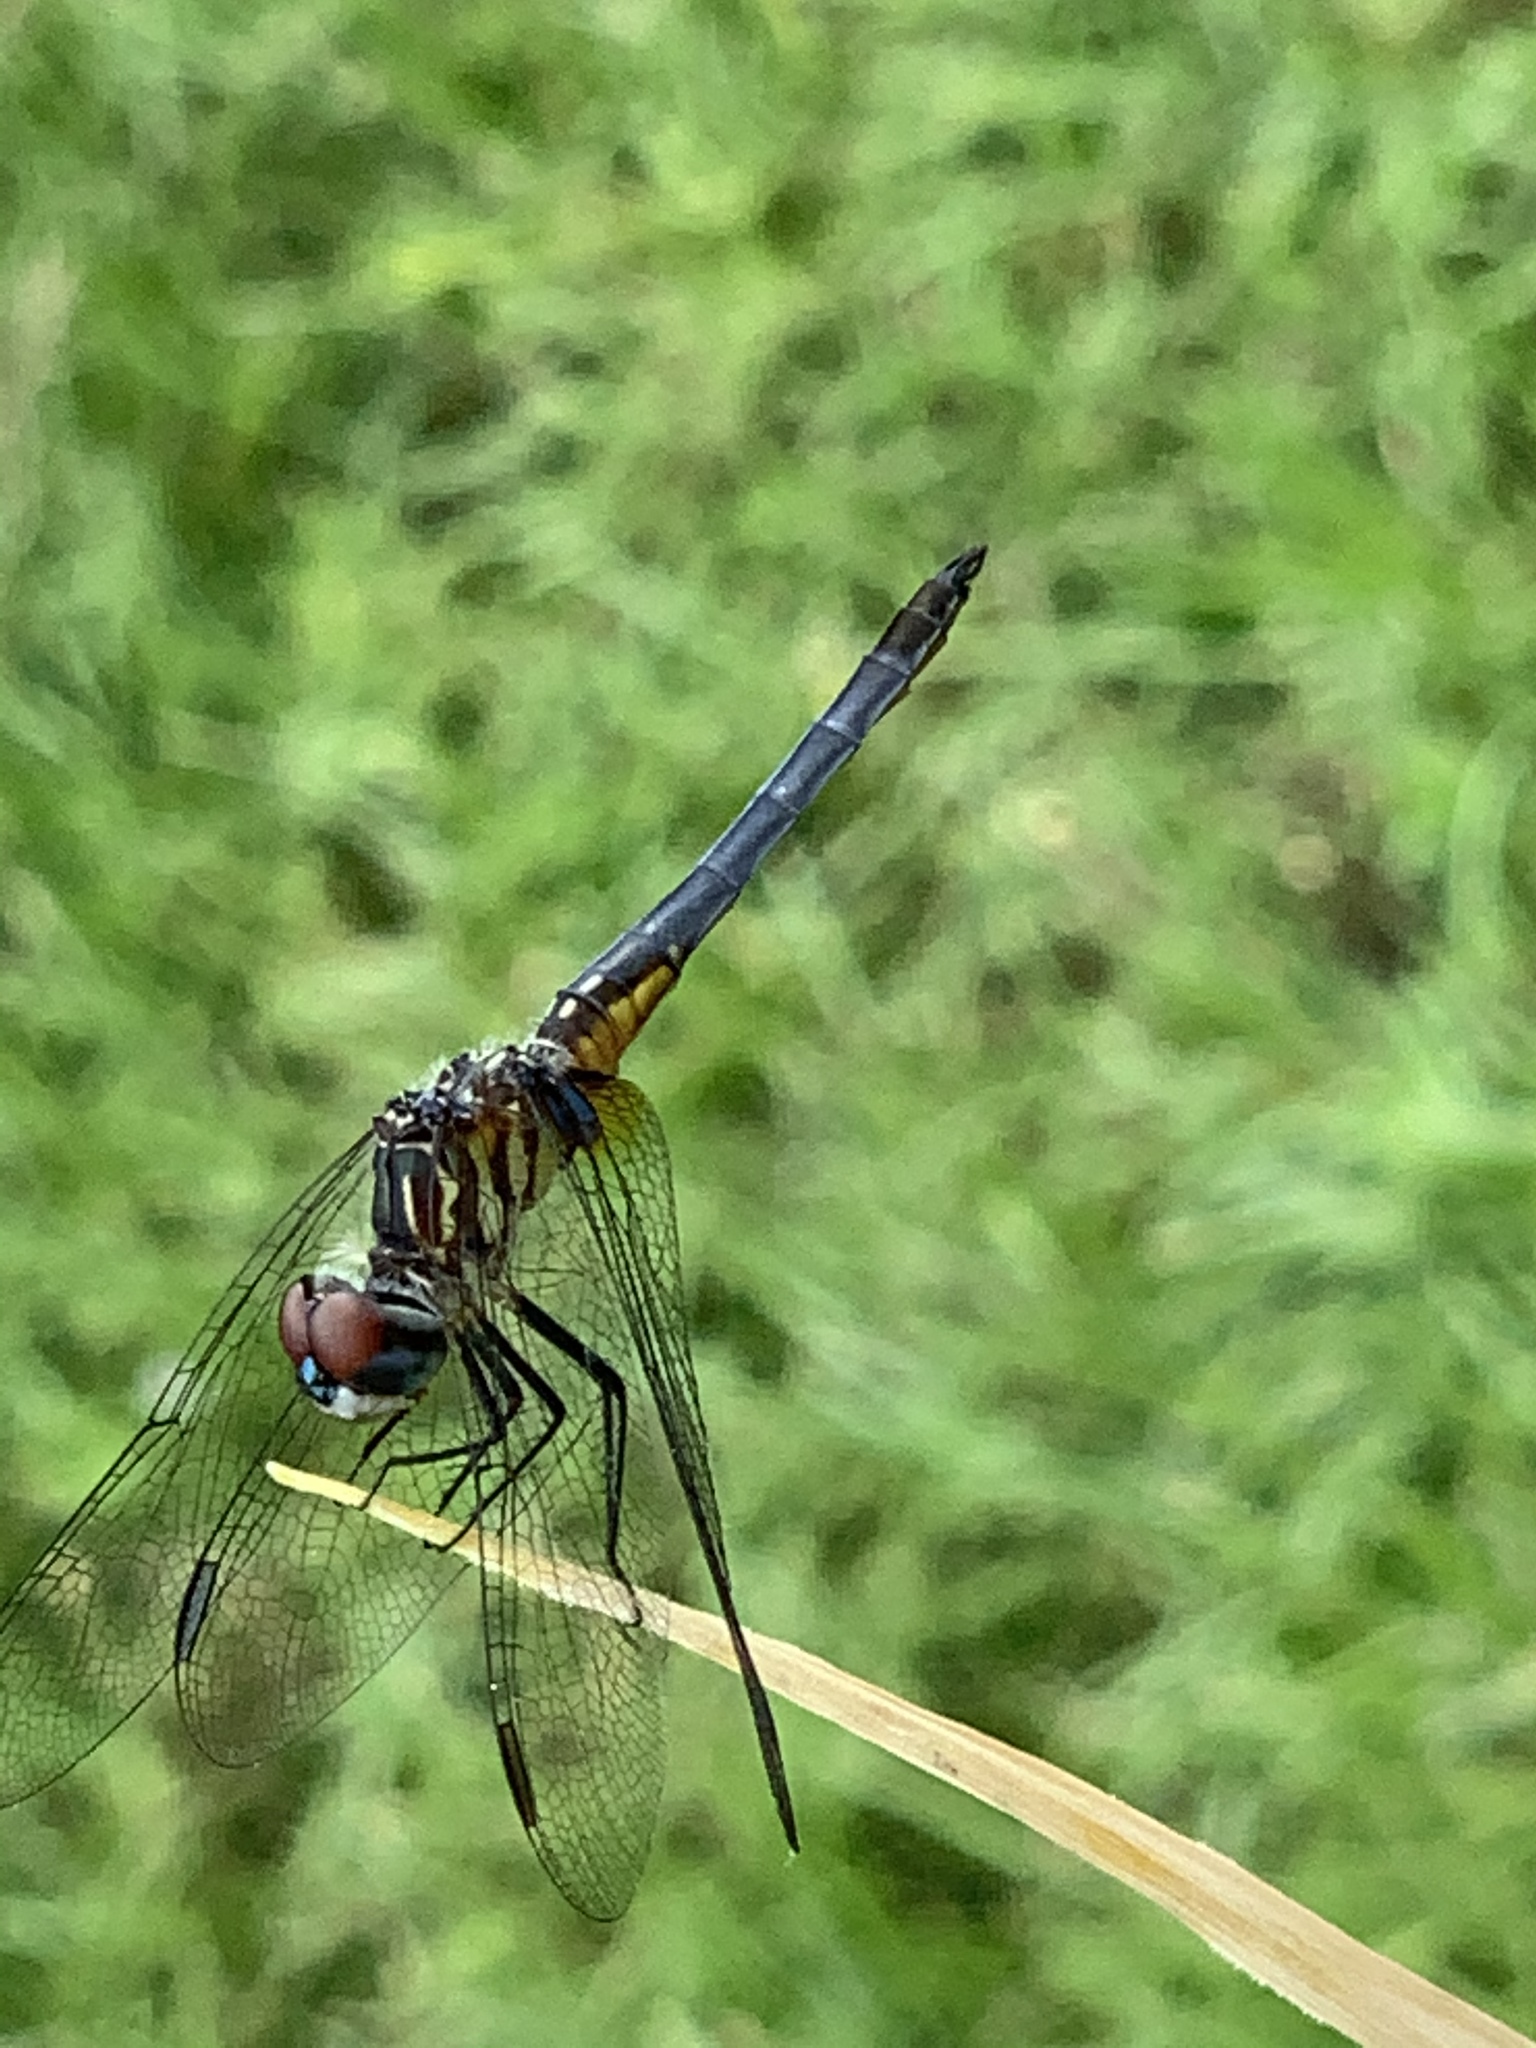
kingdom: Animalia
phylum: Arthropoda
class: Insecta
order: Odonata
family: Libellulidae
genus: Pachydiplax
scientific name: Pachydiplax longipennis
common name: Blue dasher
